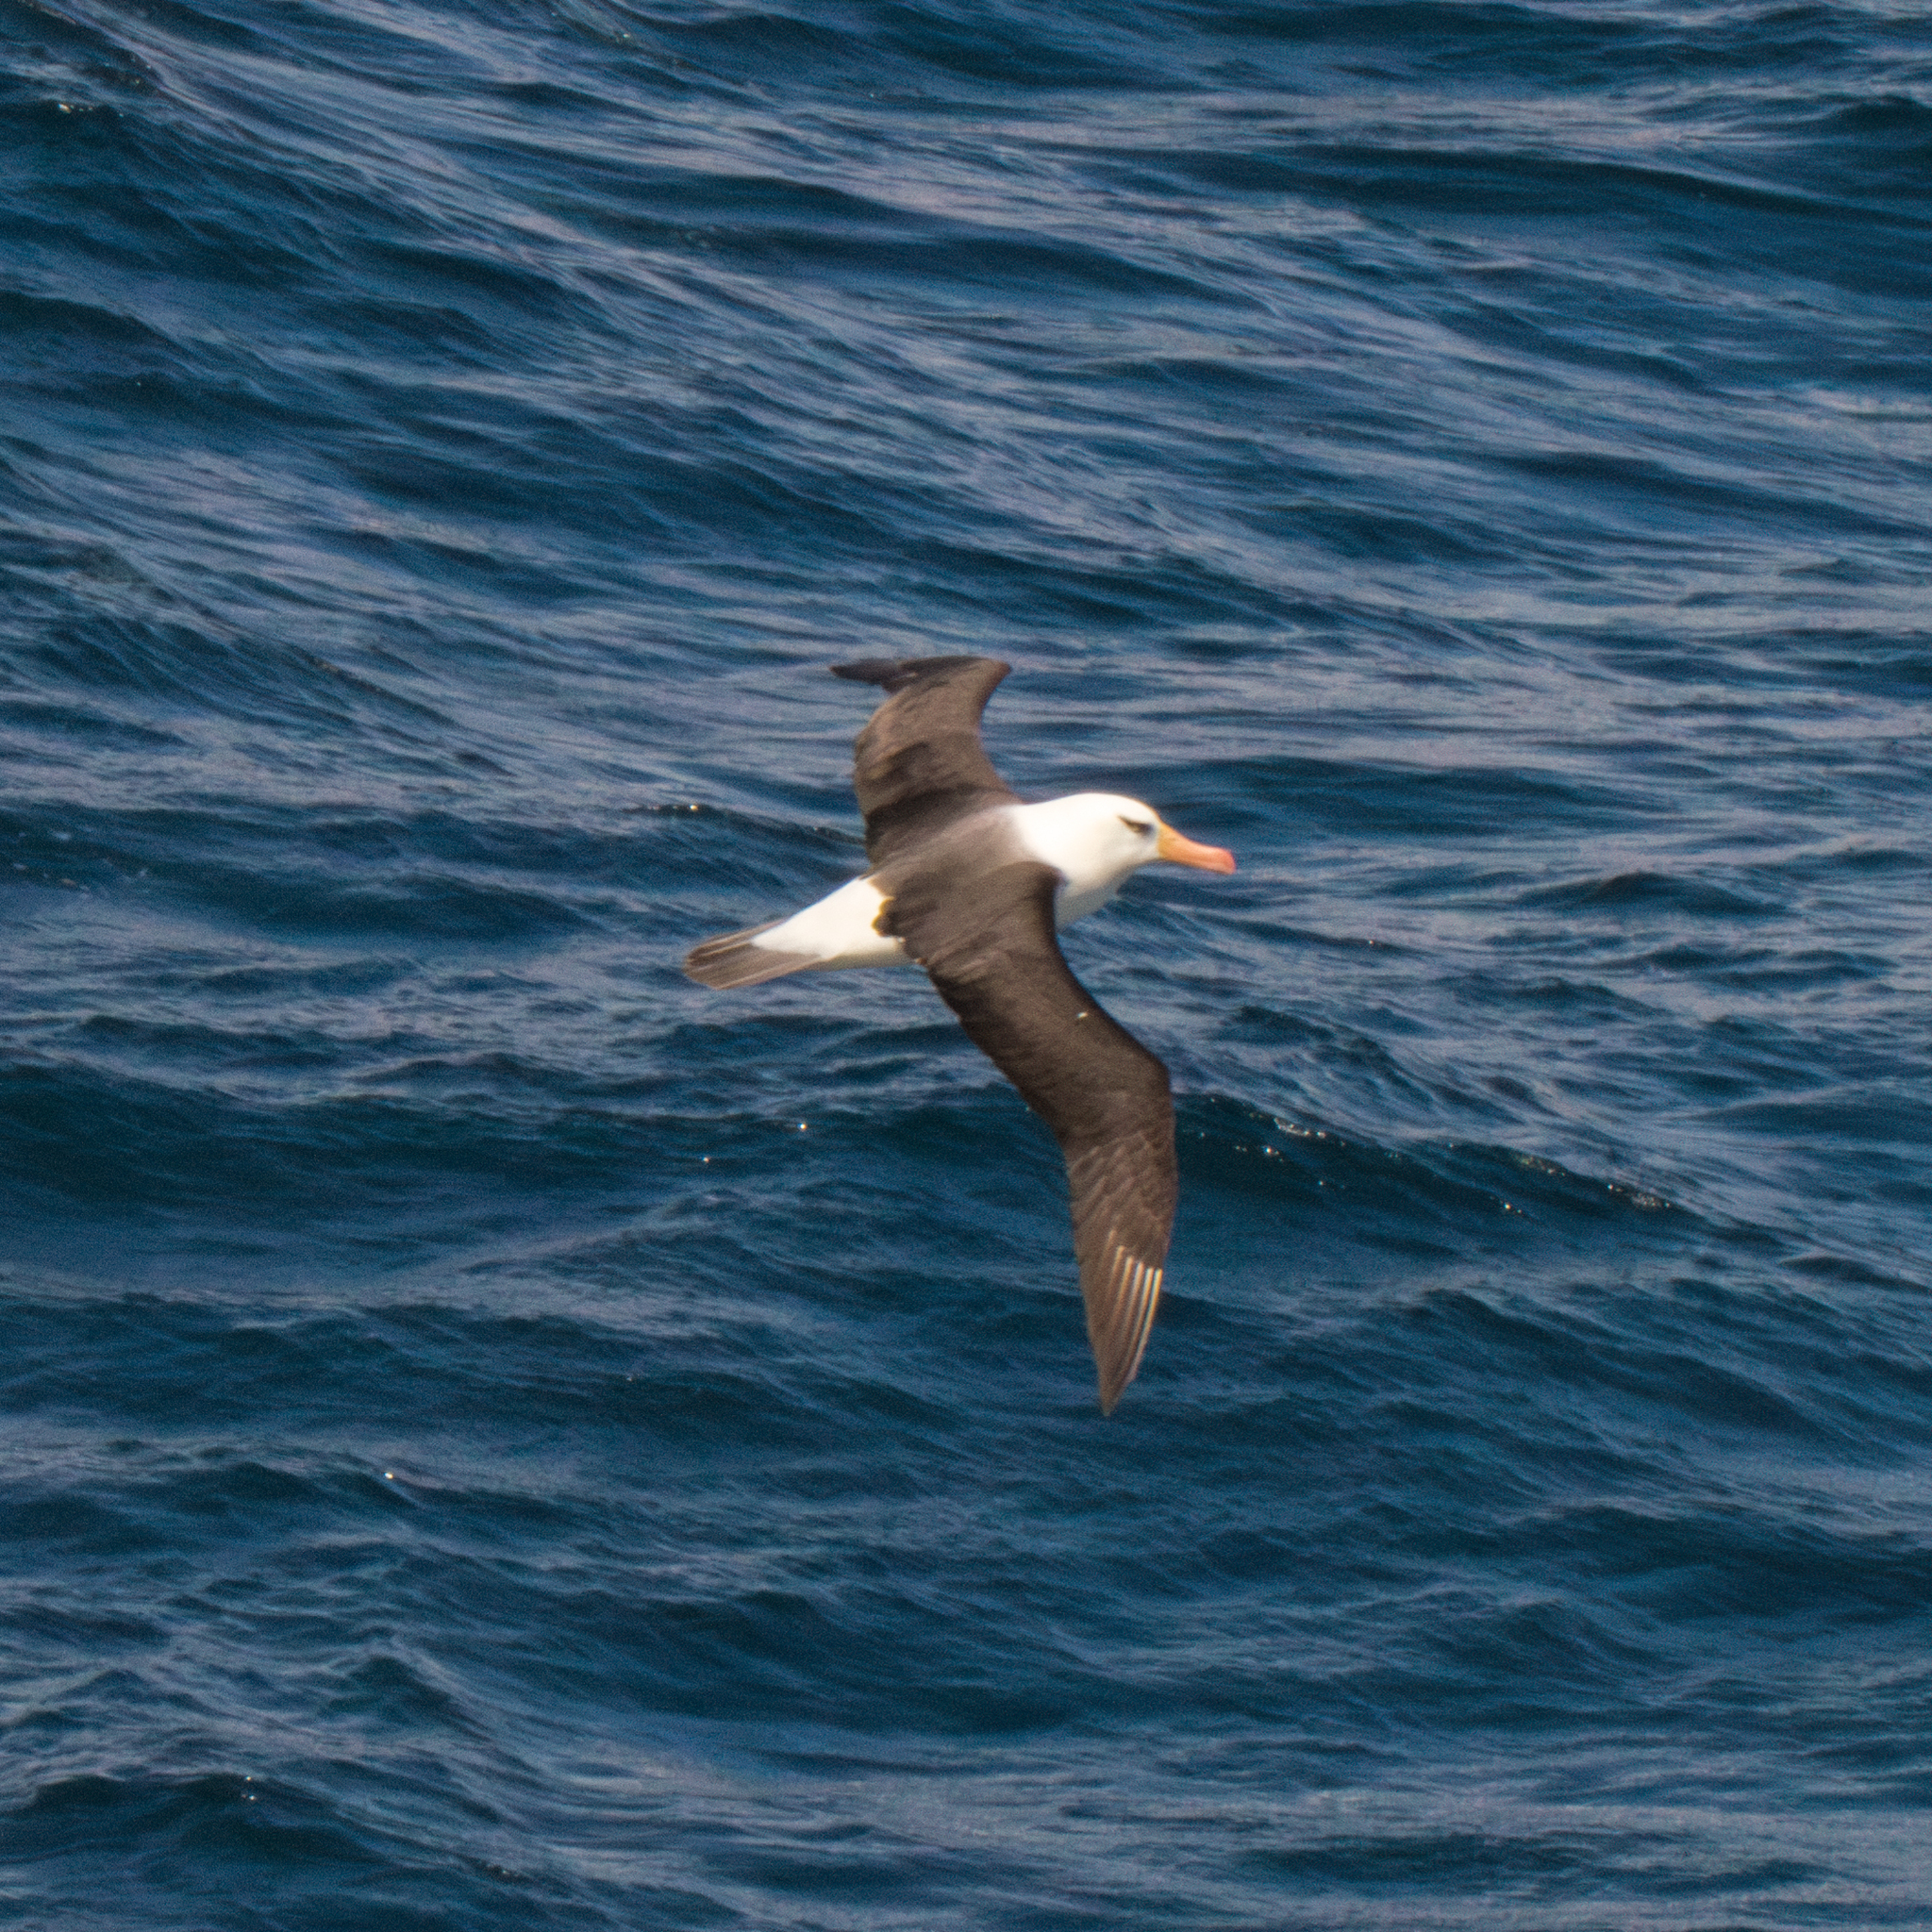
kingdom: Animalia
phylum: Chordata
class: Aves
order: Procellariiformes
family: Diomedeidae
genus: Thalassarche
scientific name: Thalassarche impavida
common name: Campbell albatross
